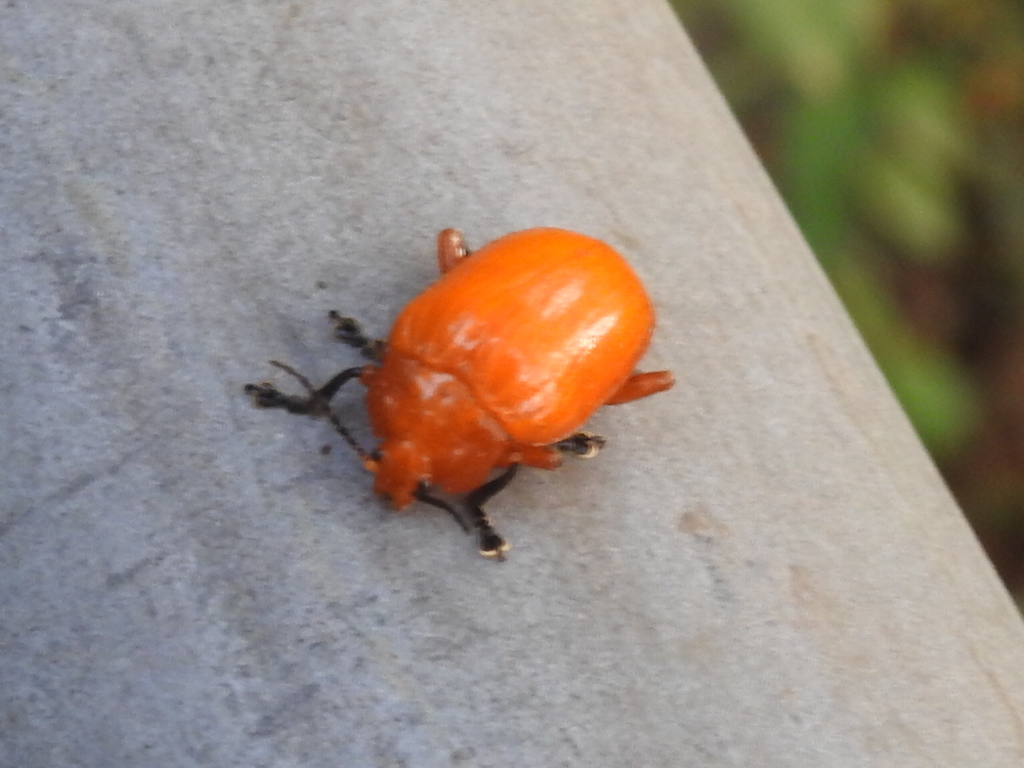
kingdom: Animalia
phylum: Arthropoda
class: Insecta
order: Coleoptera
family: Chrysomelidae
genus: Podontia
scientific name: Podontia lutea
